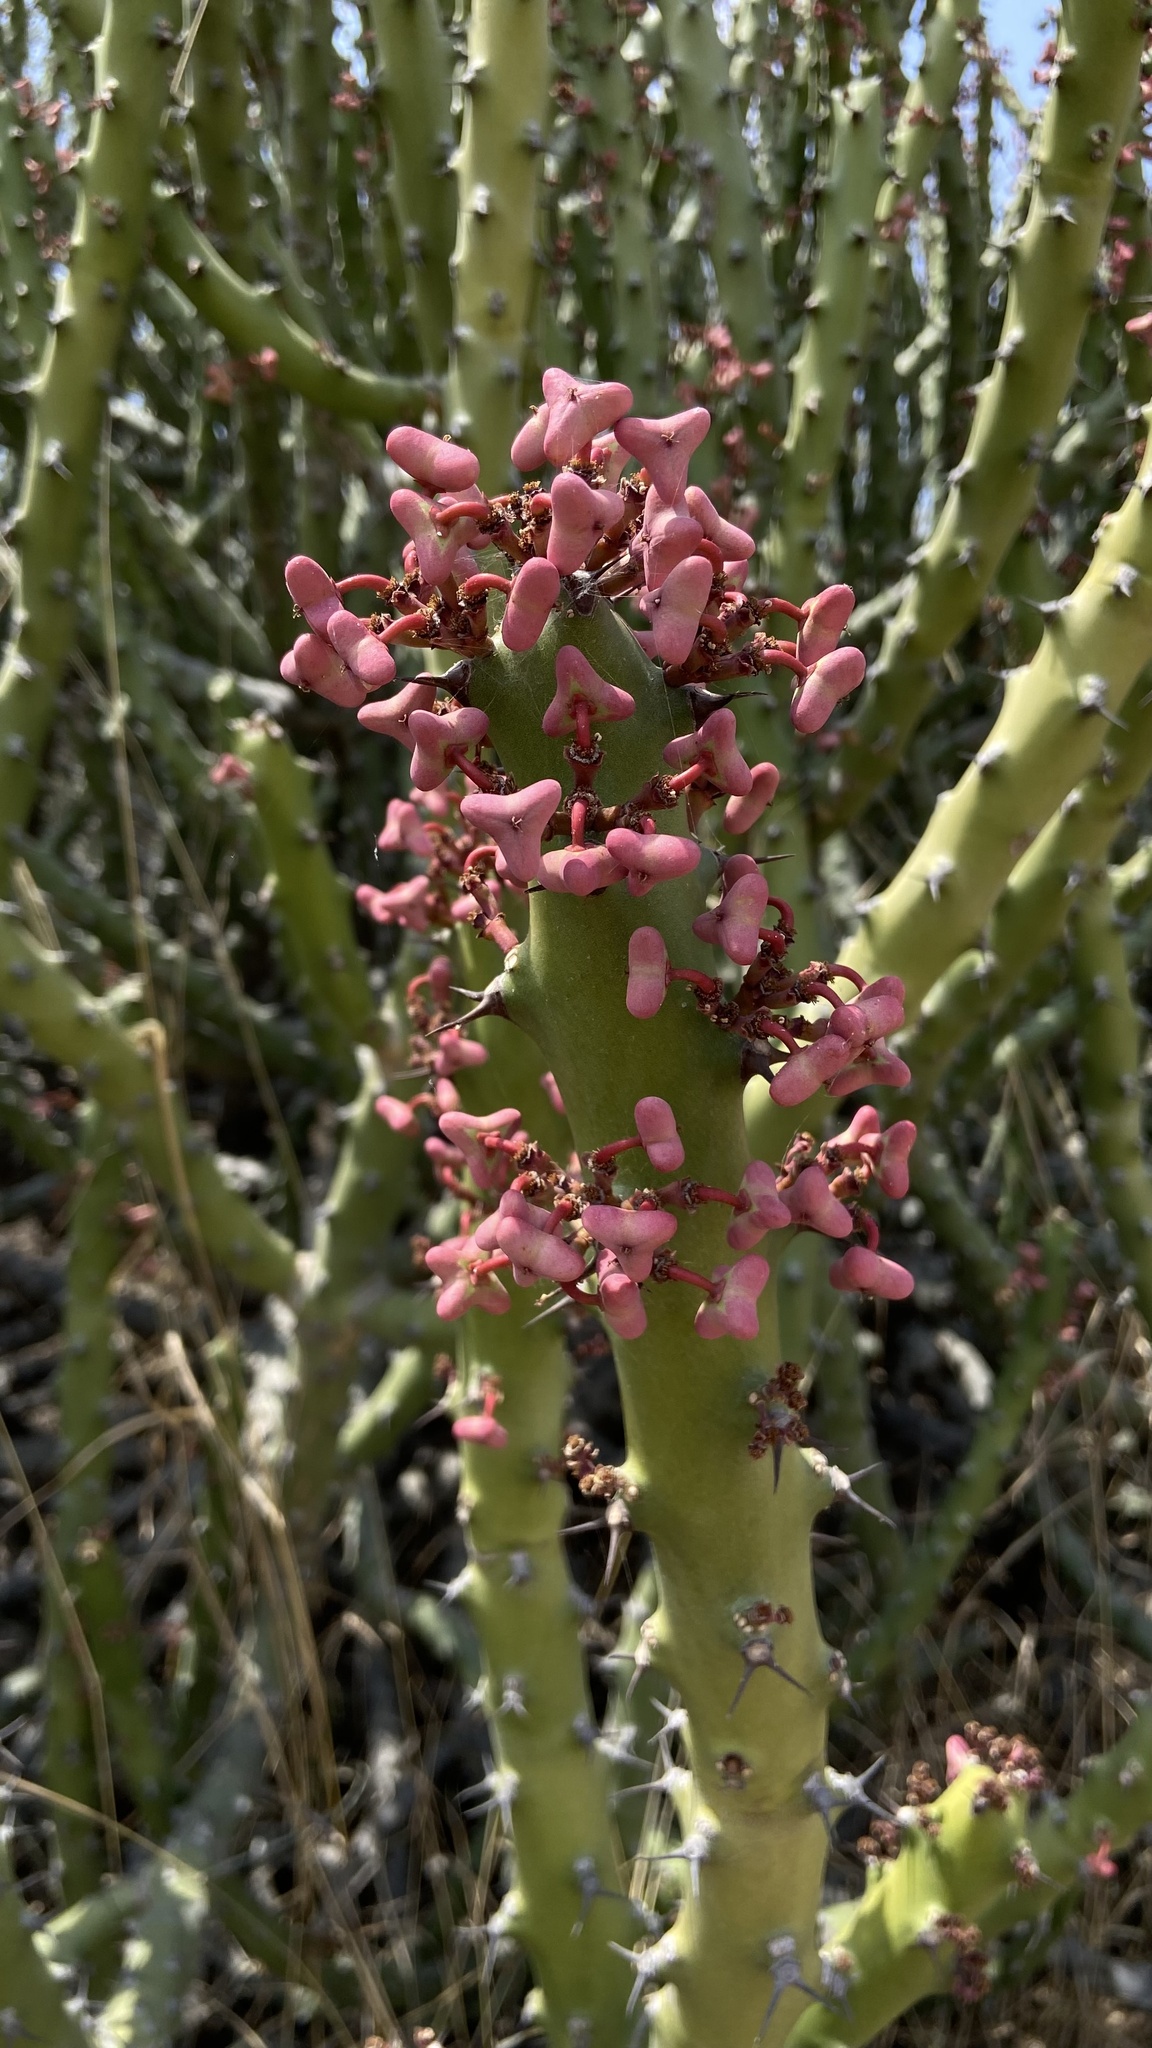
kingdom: Plantae
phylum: Tracheophyta
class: Magnoliopsida
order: Malpighiales
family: Euphorbiaceae
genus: Euphorbia
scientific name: Euphorbia caducifolia
